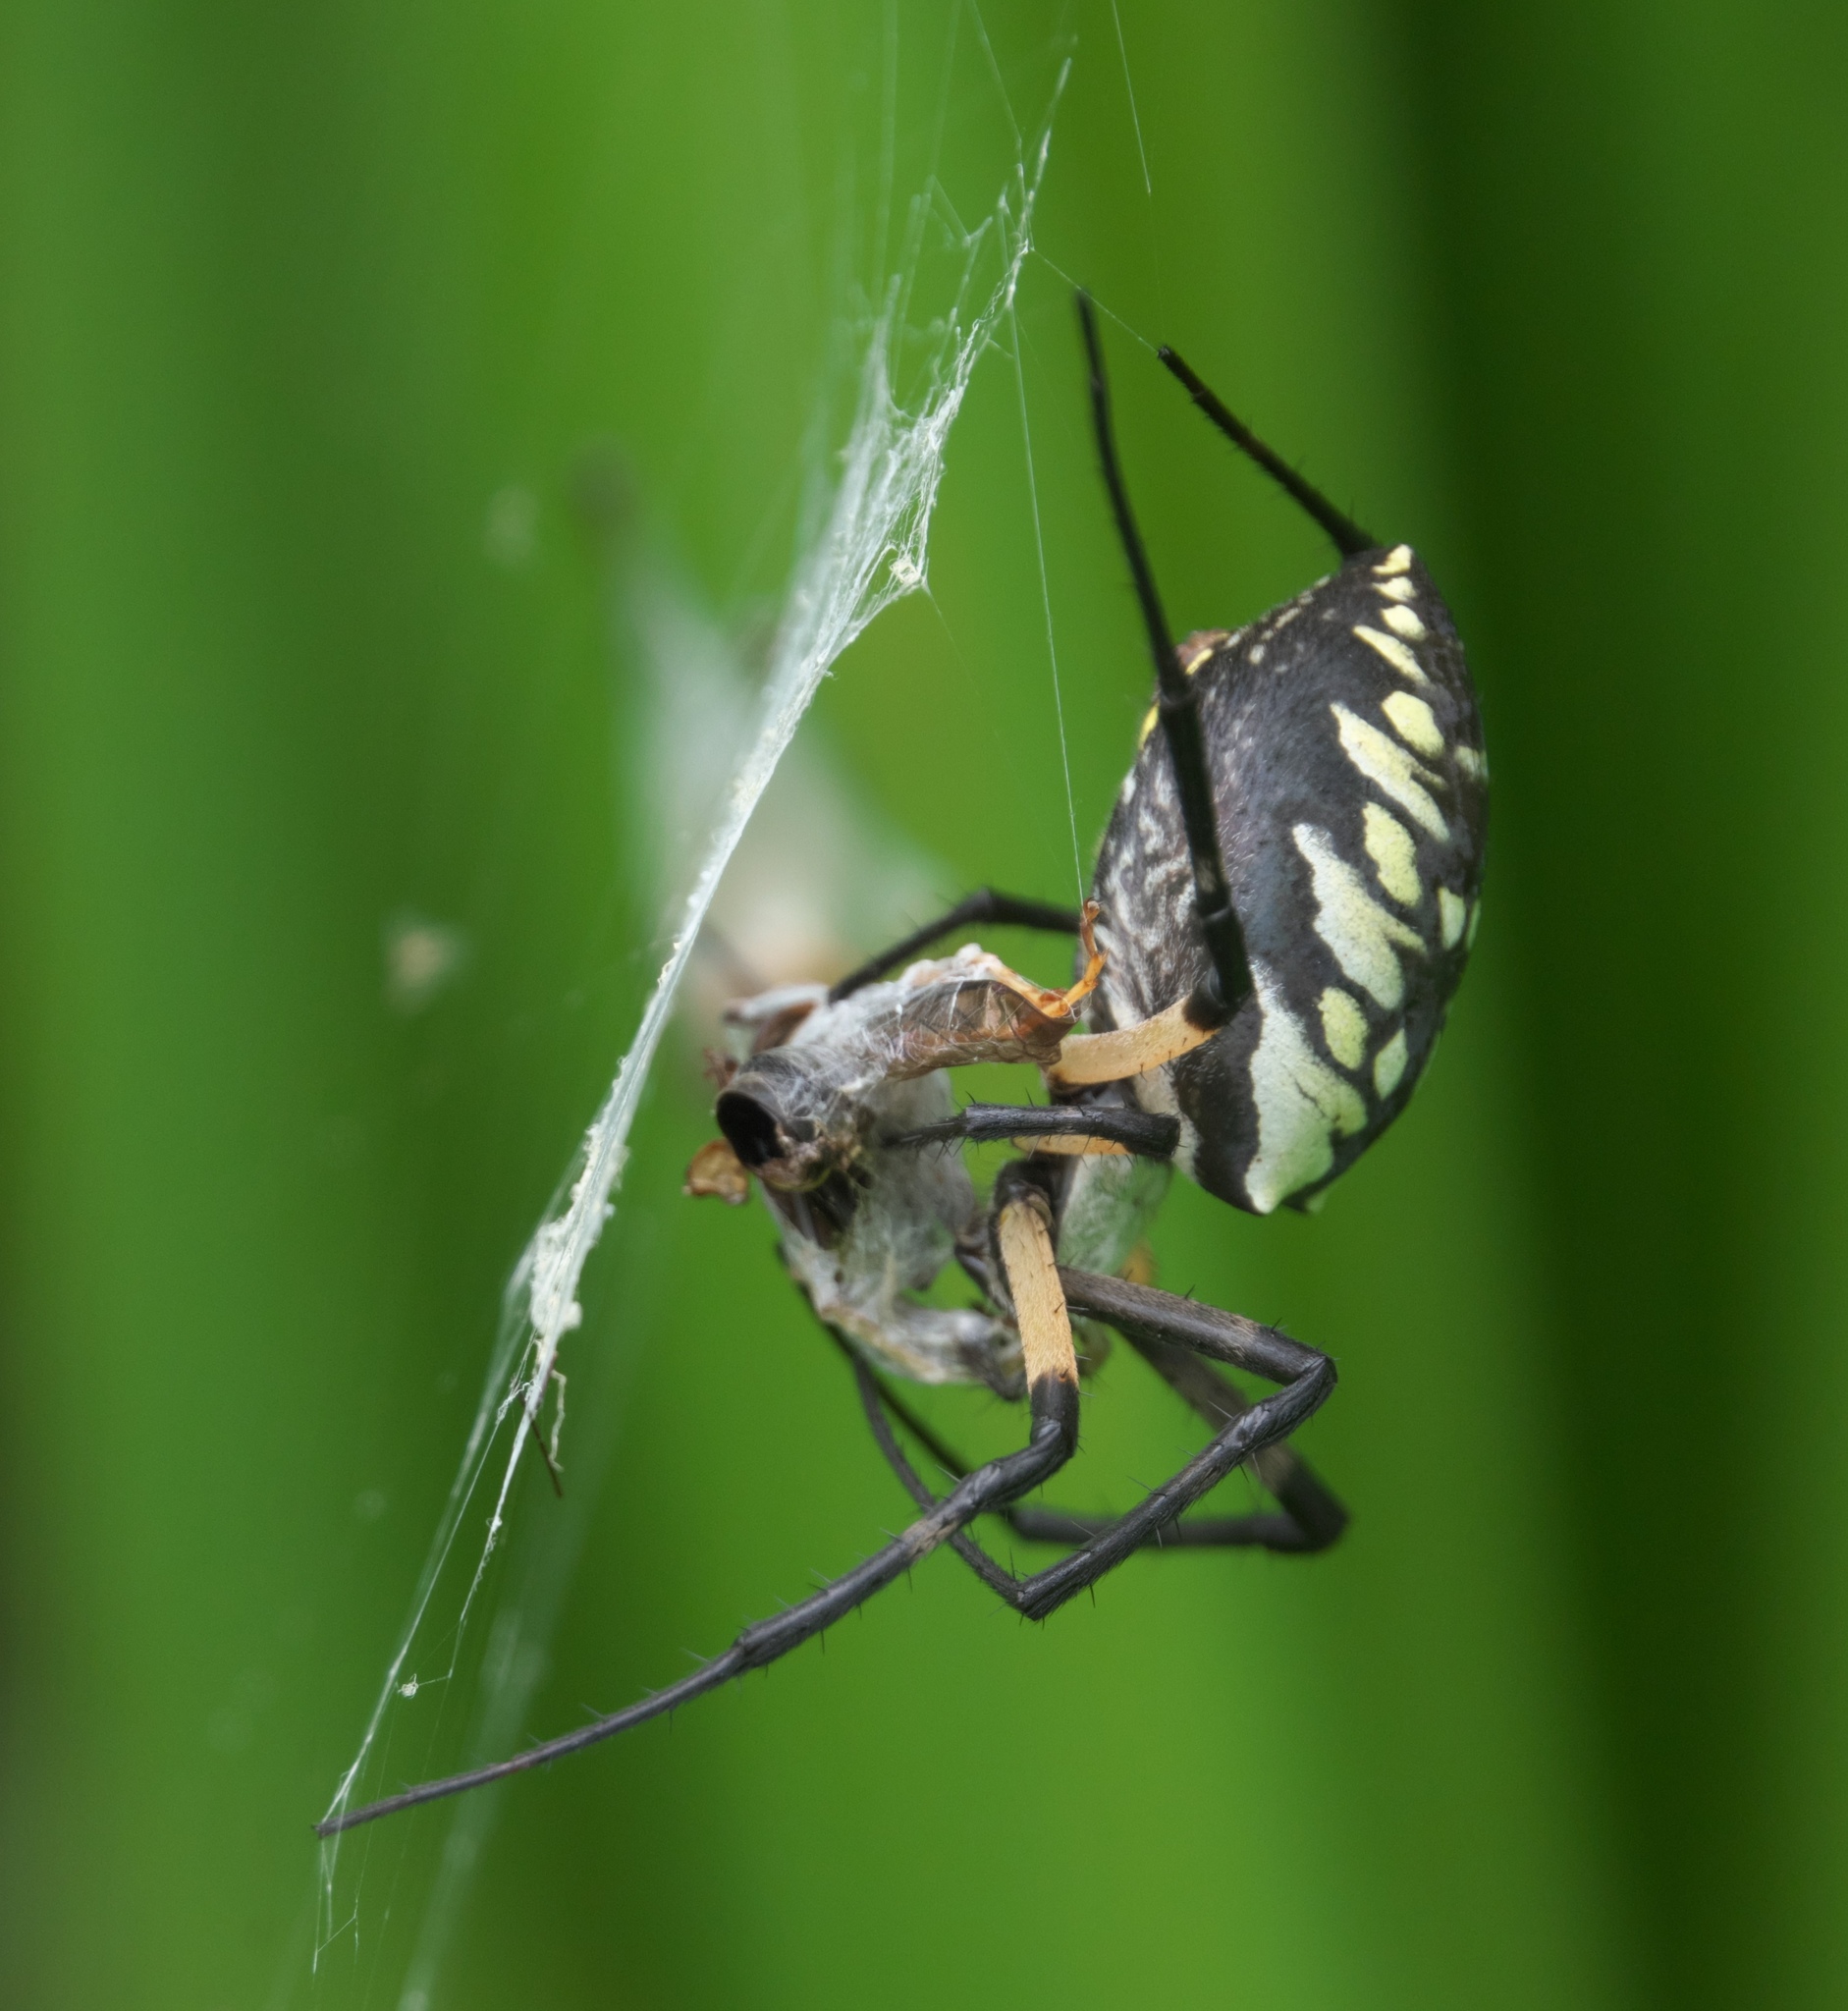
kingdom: Animalia
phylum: Arthropoda
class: Arachnida
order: Araneae
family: Araneidae
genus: Argiope
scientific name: Argiope aurantia
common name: Orb weavers
